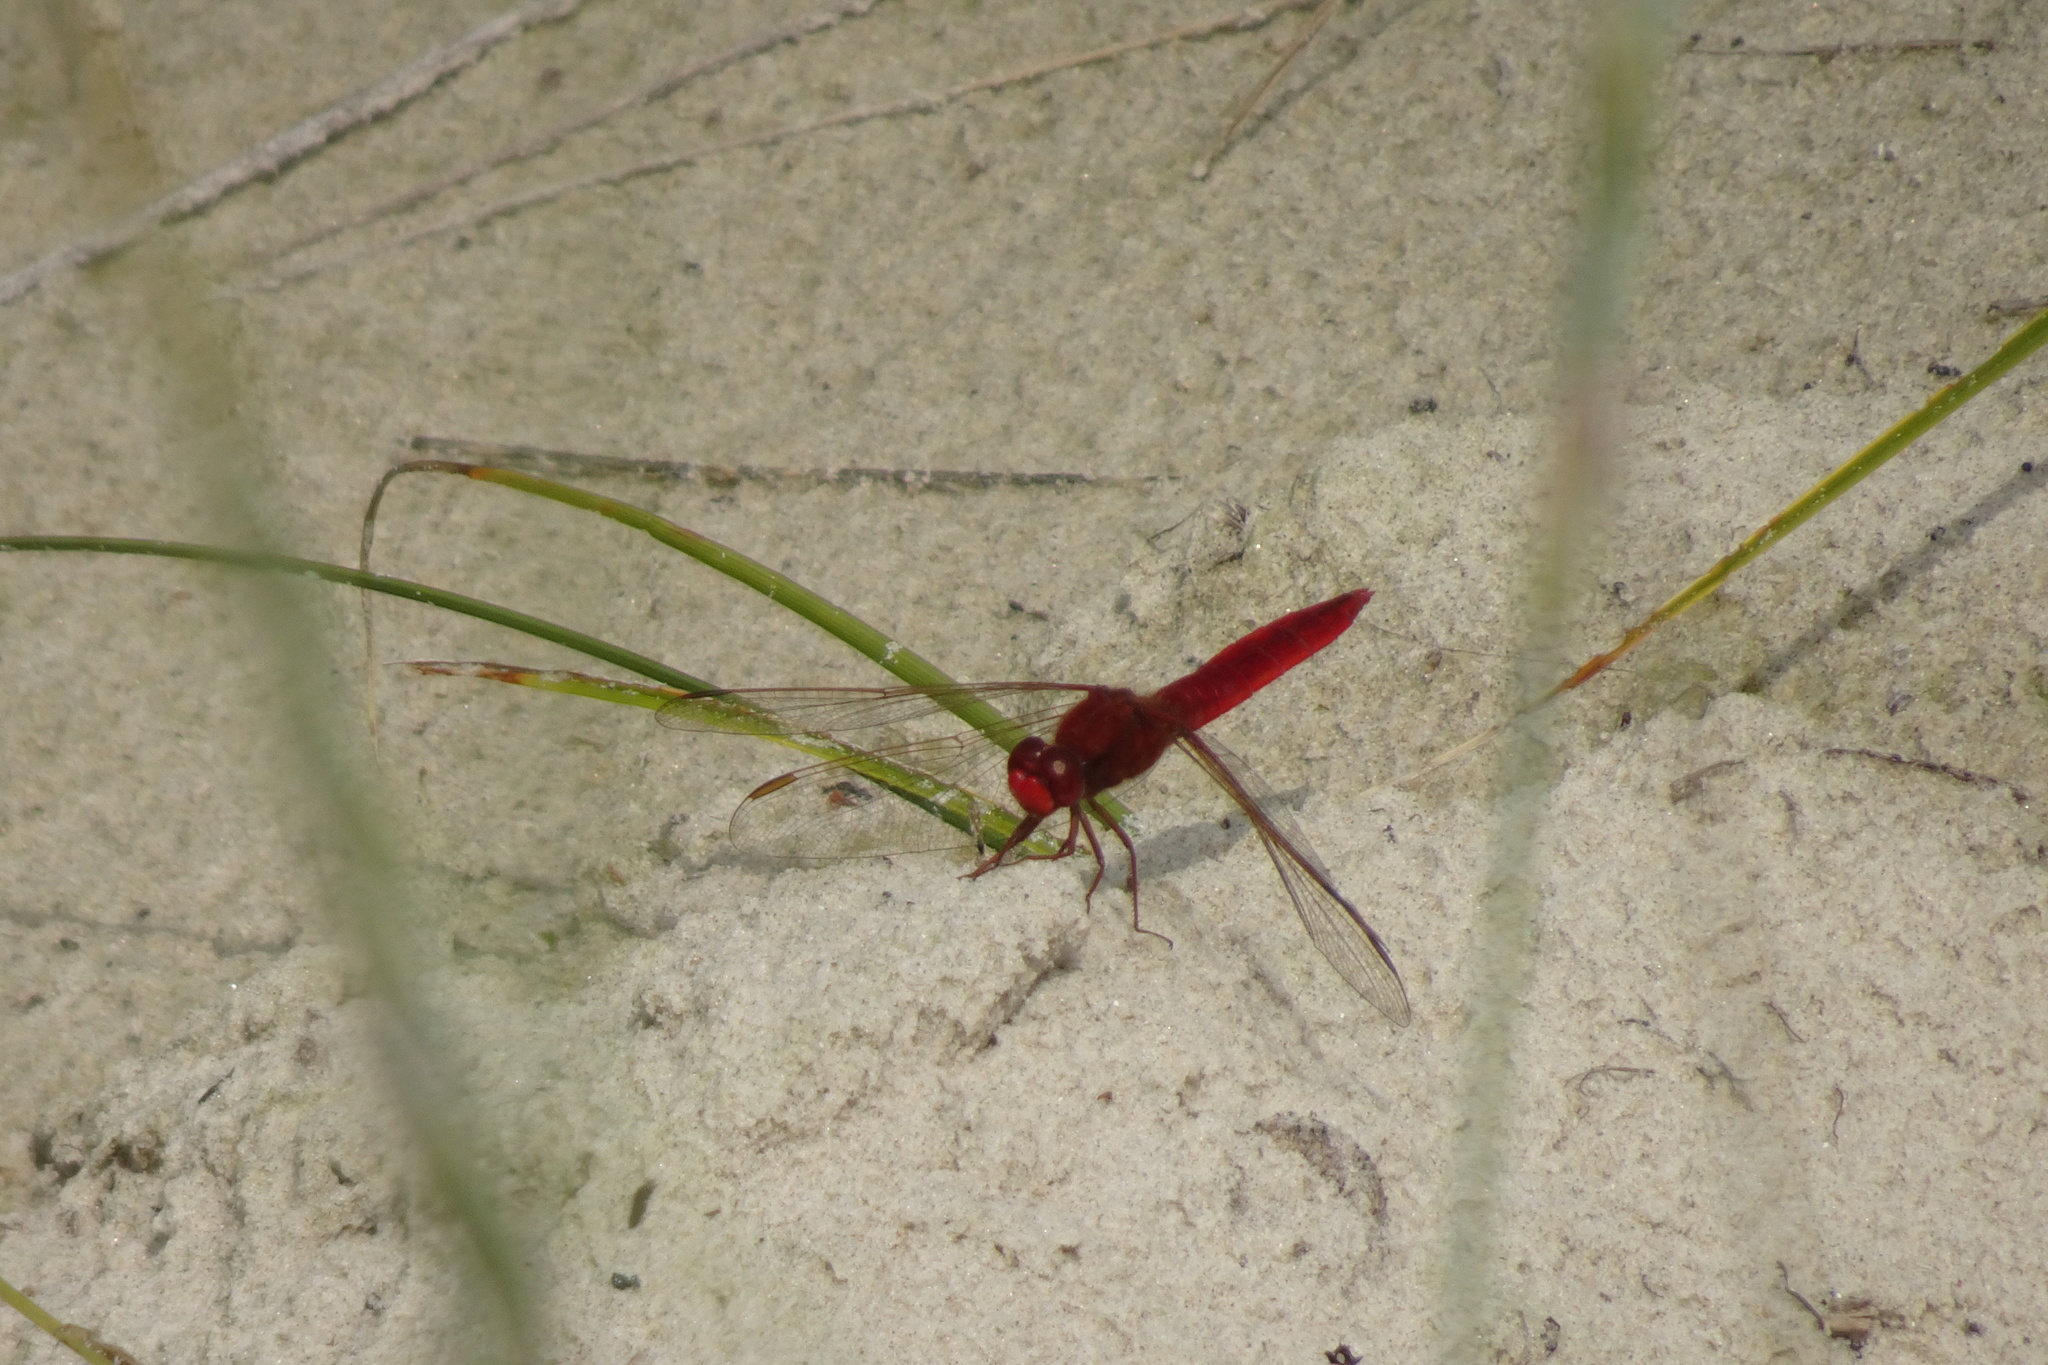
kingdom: Animalia
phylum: Arthropoda
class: Insecta
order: Odonata
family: Libellulidae
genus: Crocothemis
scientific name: Crocothemis erythraea
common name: Scarlet dragonfly
